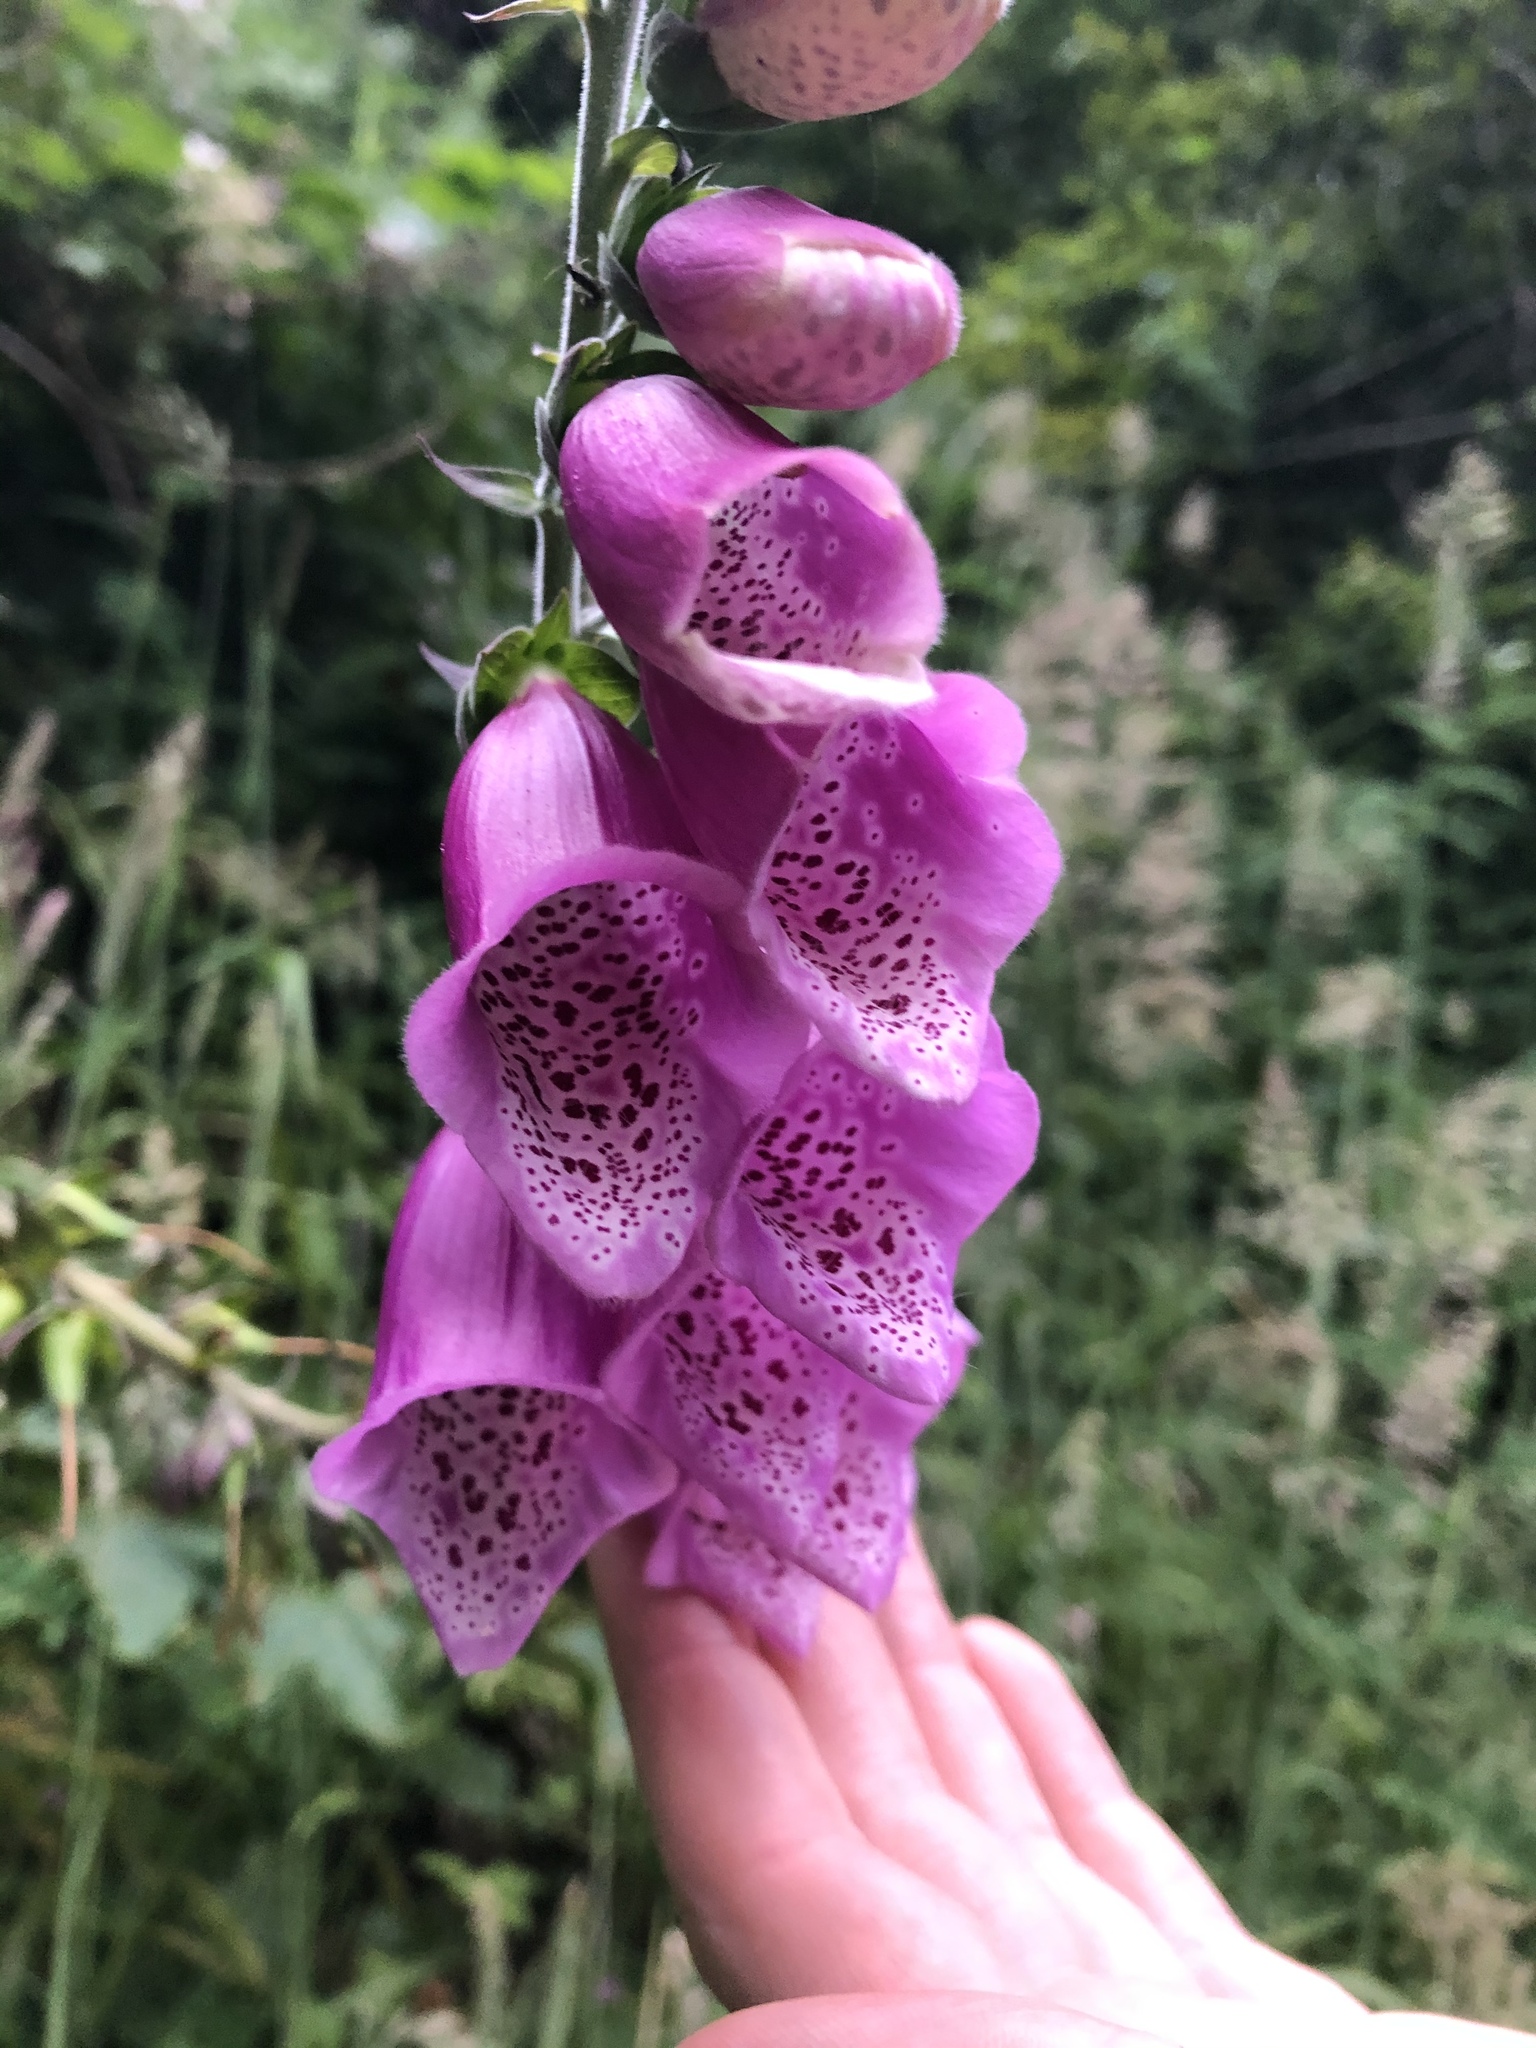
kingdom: Plantae
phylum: Tracheophyta
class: Magnoliopsida
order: Lamiales
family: Plantaginaceae
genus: Digitalis
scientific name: Digitalis purpurea
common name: Foxglove
